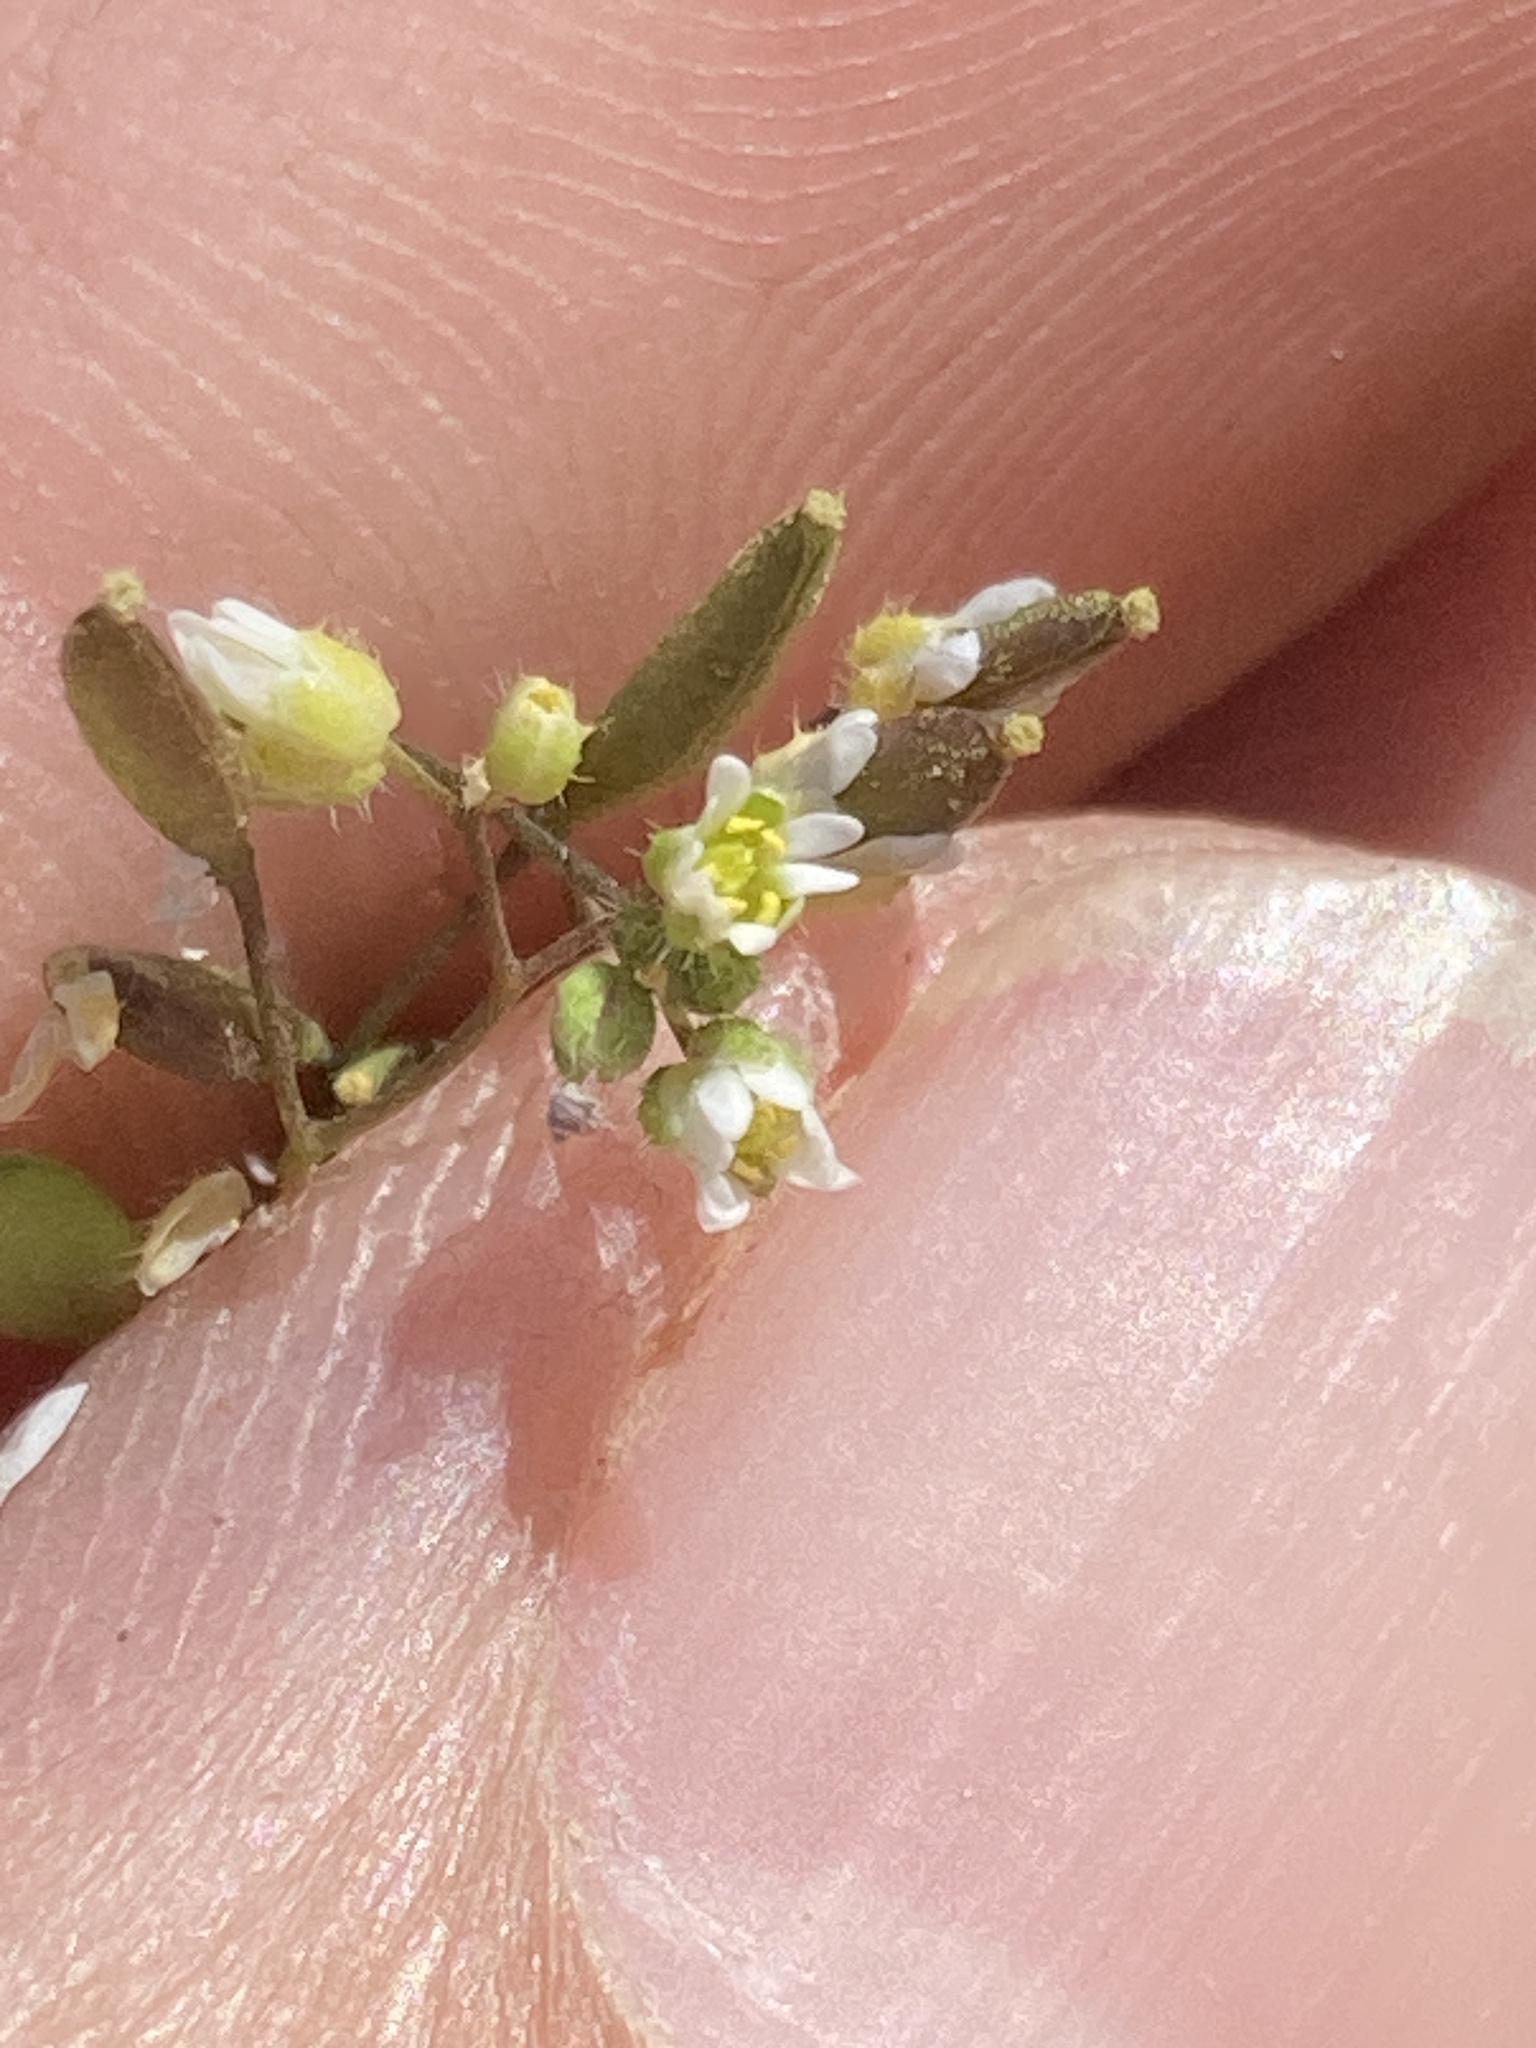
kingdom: Plantae
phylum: Tracheophyta
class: Magnoliopsida
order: Brassicales
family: Brassicaceae
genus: Draba
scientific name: Draba verna
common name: Spring draba
